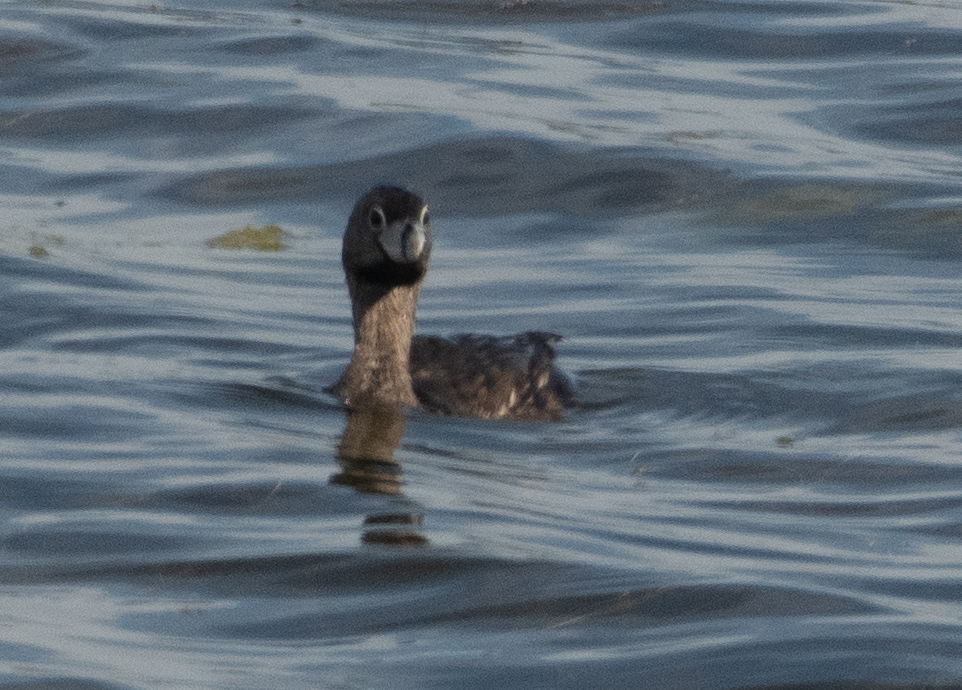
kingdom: Animalia
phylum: Chordata
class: Aves
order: Podicipediformes
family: Podicipedidae
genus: Podilymbus
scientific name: Podilymbus podiceps
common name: Pied-billed grebe
